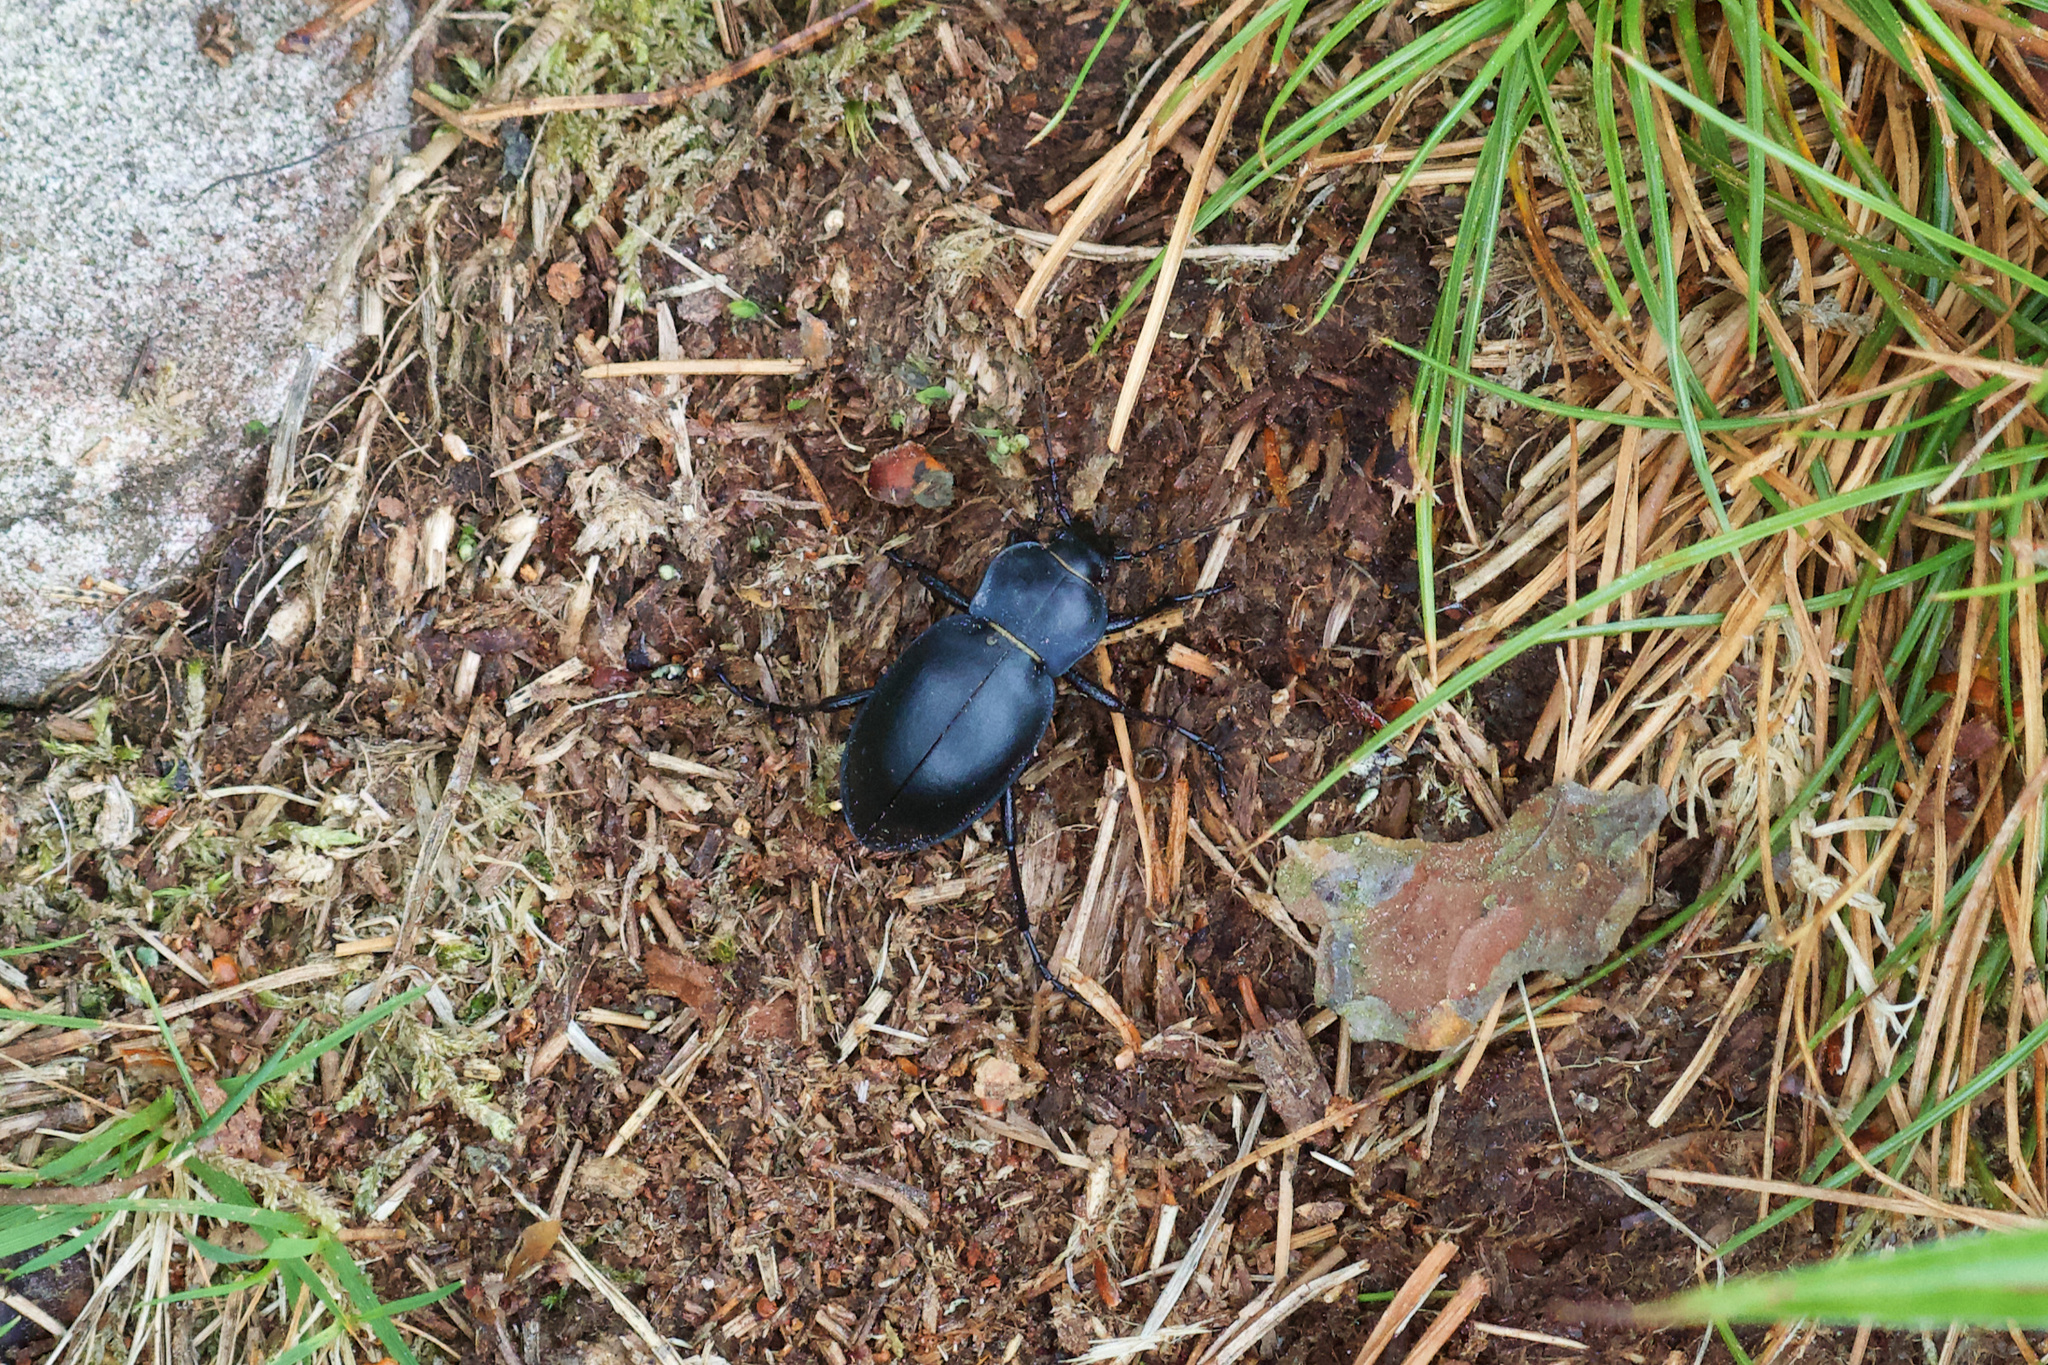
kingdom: Animalia
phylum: Arthropoda
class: Insecta
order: Coleoptera
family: Carabidae
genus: Carabus
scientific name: Carabus glabratus
